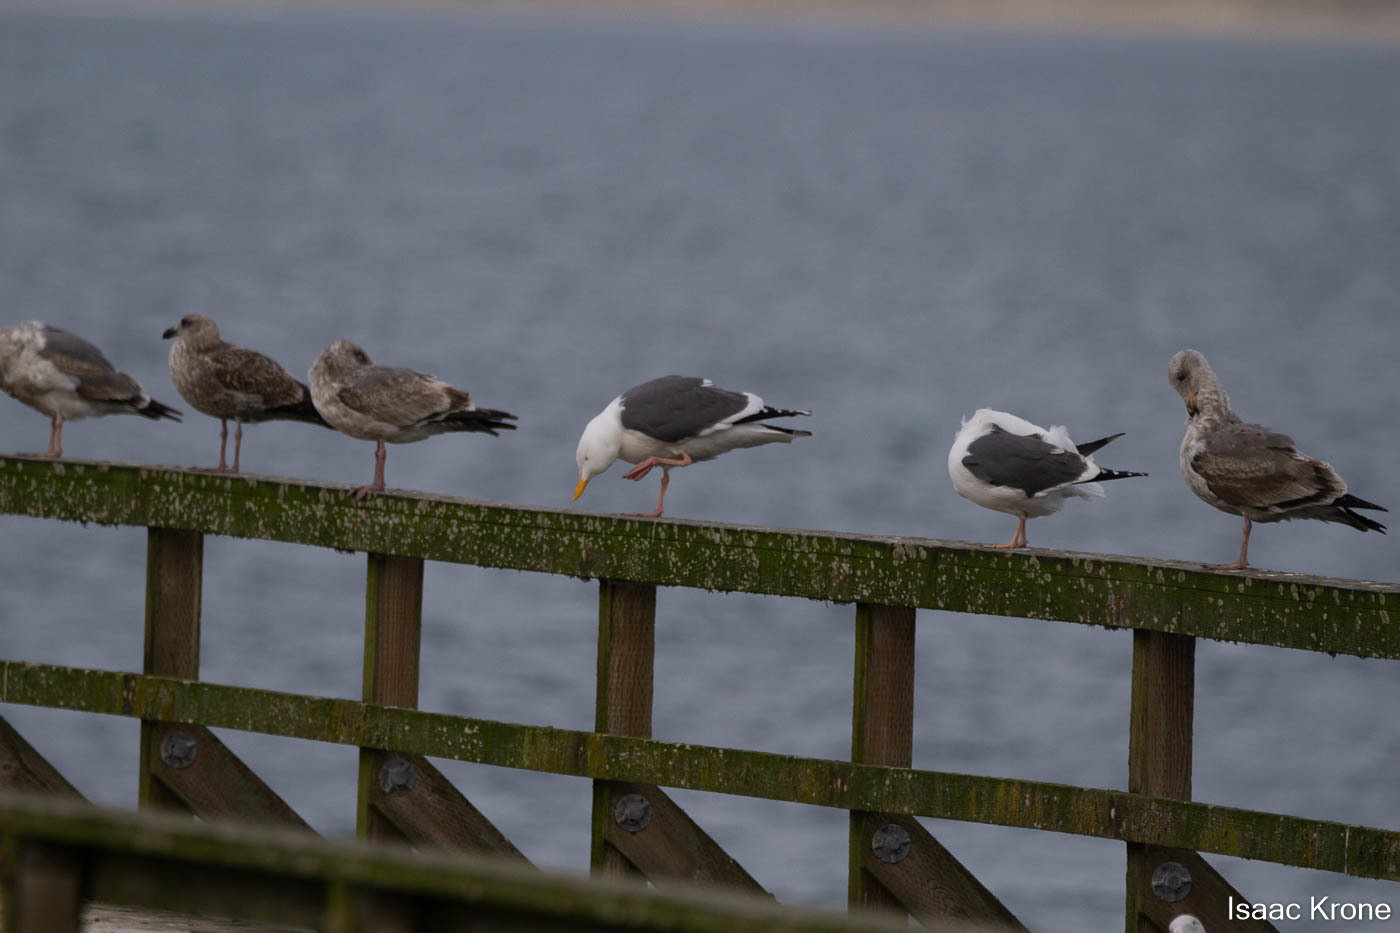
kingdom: Animalia
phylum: Chordata
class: Aves
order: Charadriiformes
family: Laridae
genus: Larus
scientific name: Larus occidentalis
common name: Western gull
